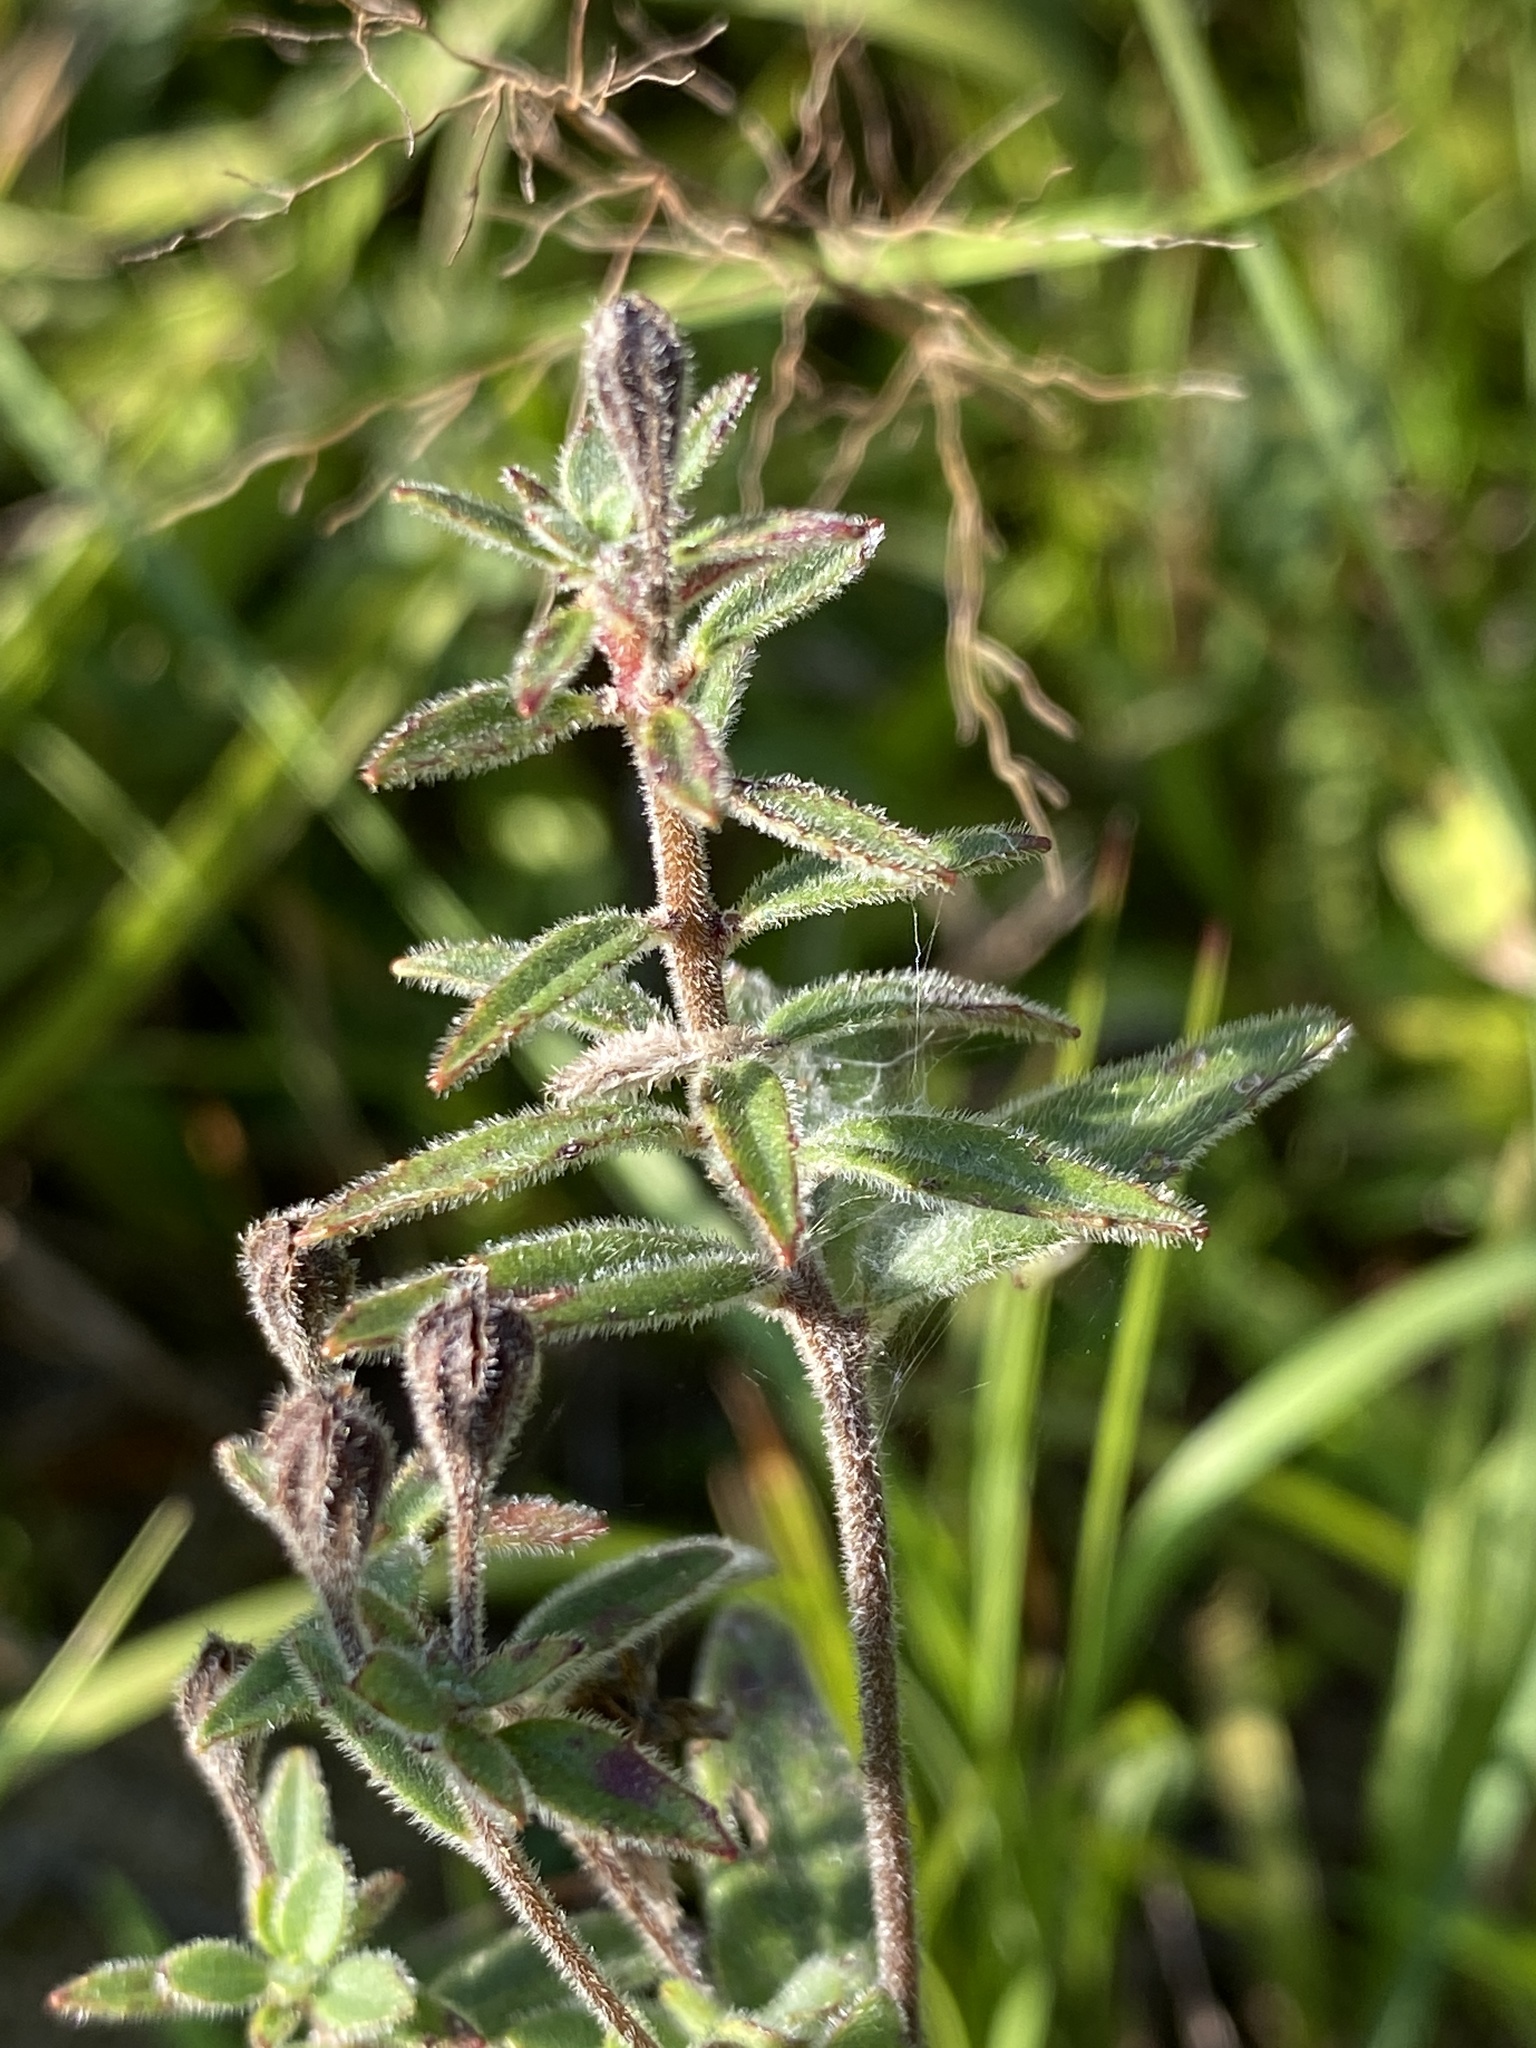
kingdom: Plantae
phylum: Tracheophyta
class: Magnoliopsida
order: Myrtales
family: Onagraceae
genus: Oenothera
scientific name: Oenothera fruticosa
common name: Southern sundrops
